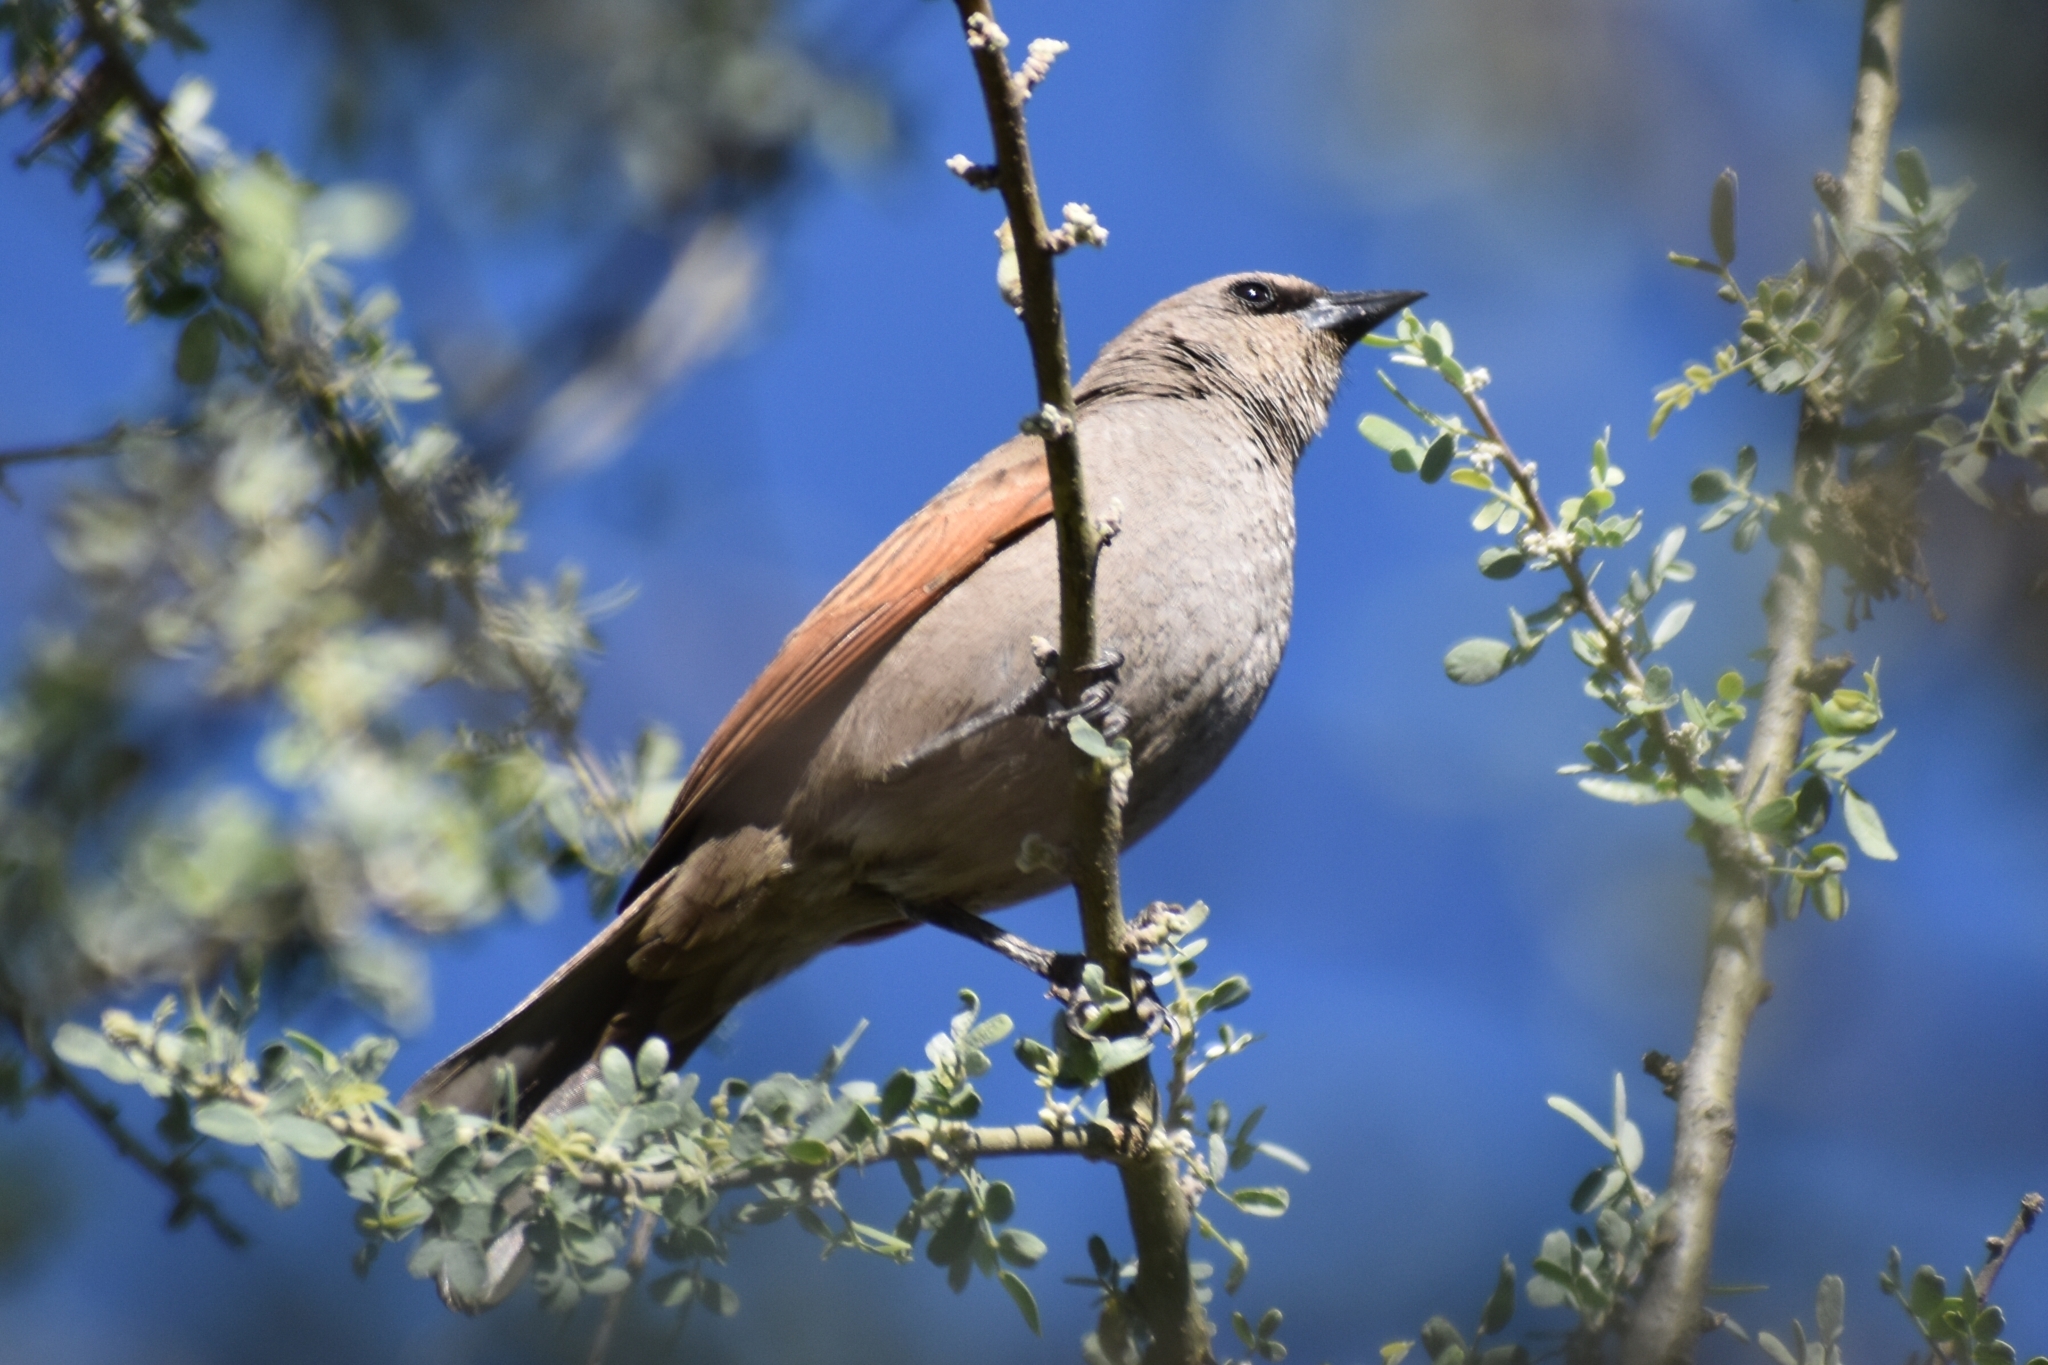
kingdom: Animalia
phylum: Chordata
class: Aves
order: Passeriformes
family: Icteridae
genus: Agelaioides
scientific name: Agelaioides badius
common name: Baywing
